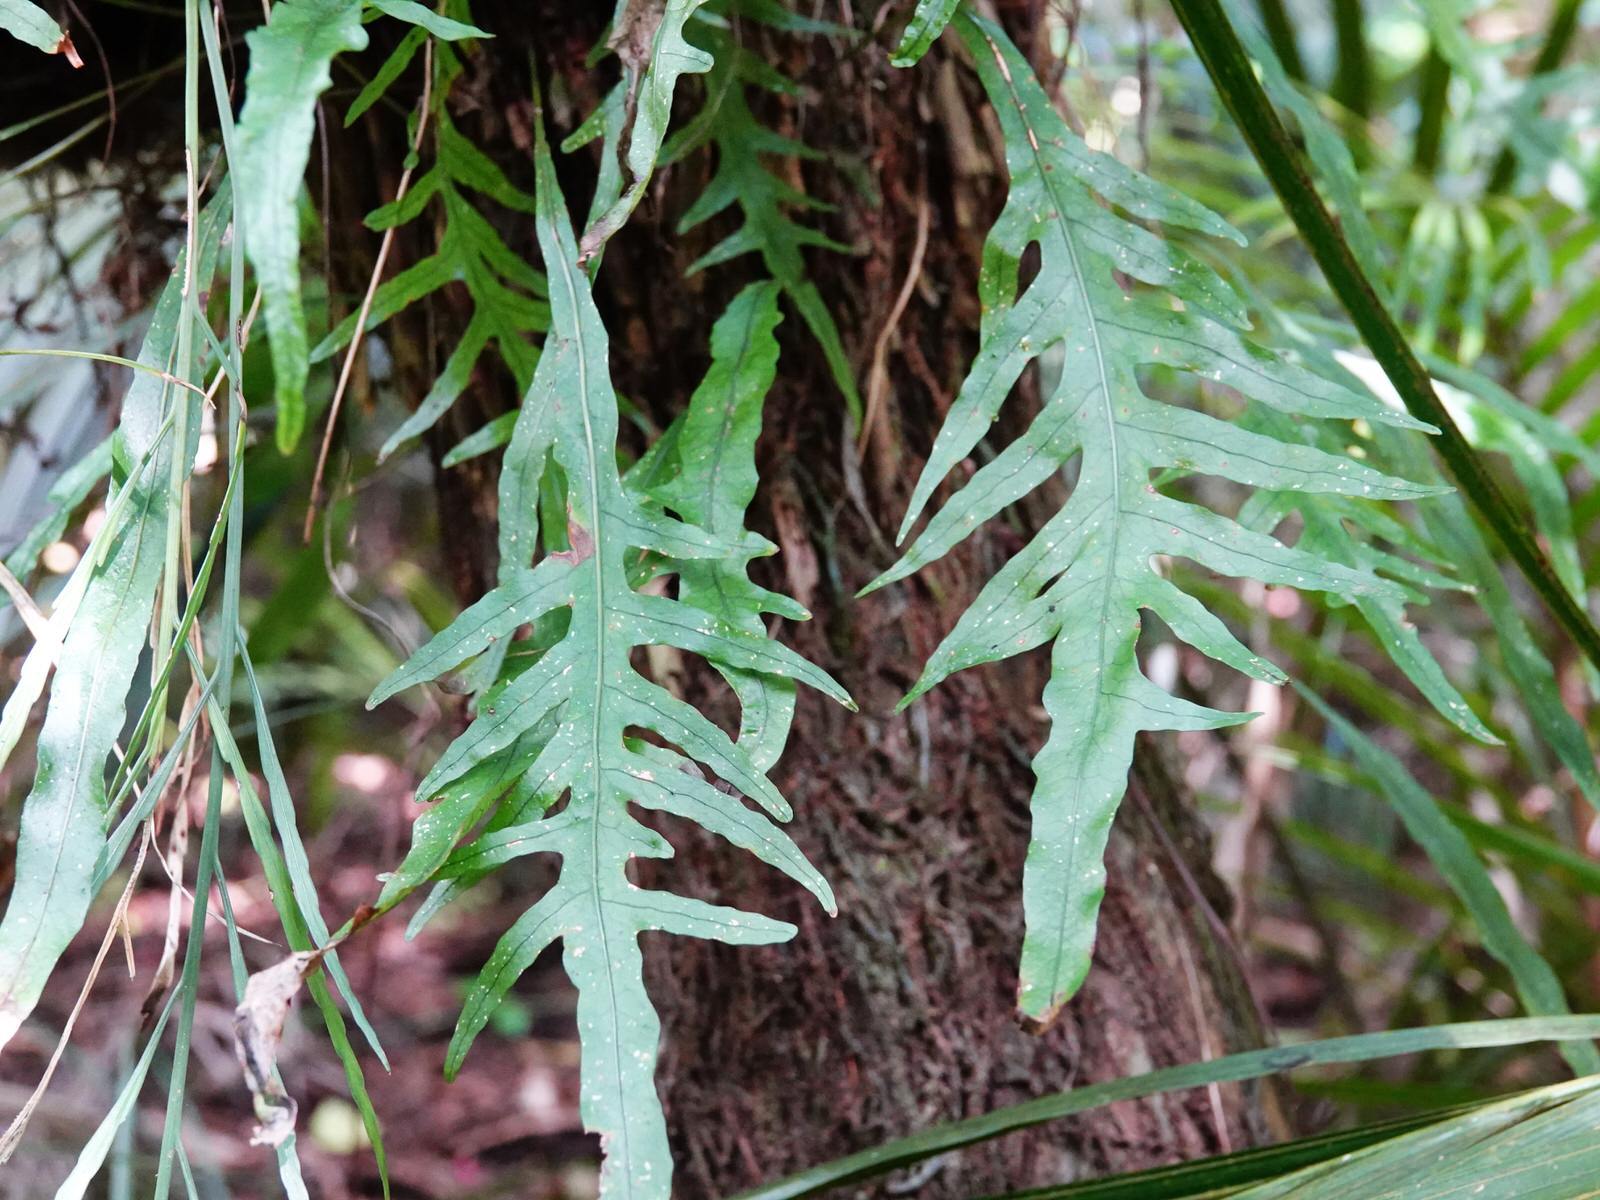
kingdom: Plantae
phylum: Tracheophyta
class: Polypodiopsida
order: Polypodiales
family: Polypodiaceae
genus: Lecanopteris
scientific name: Lecanopteris scandens
